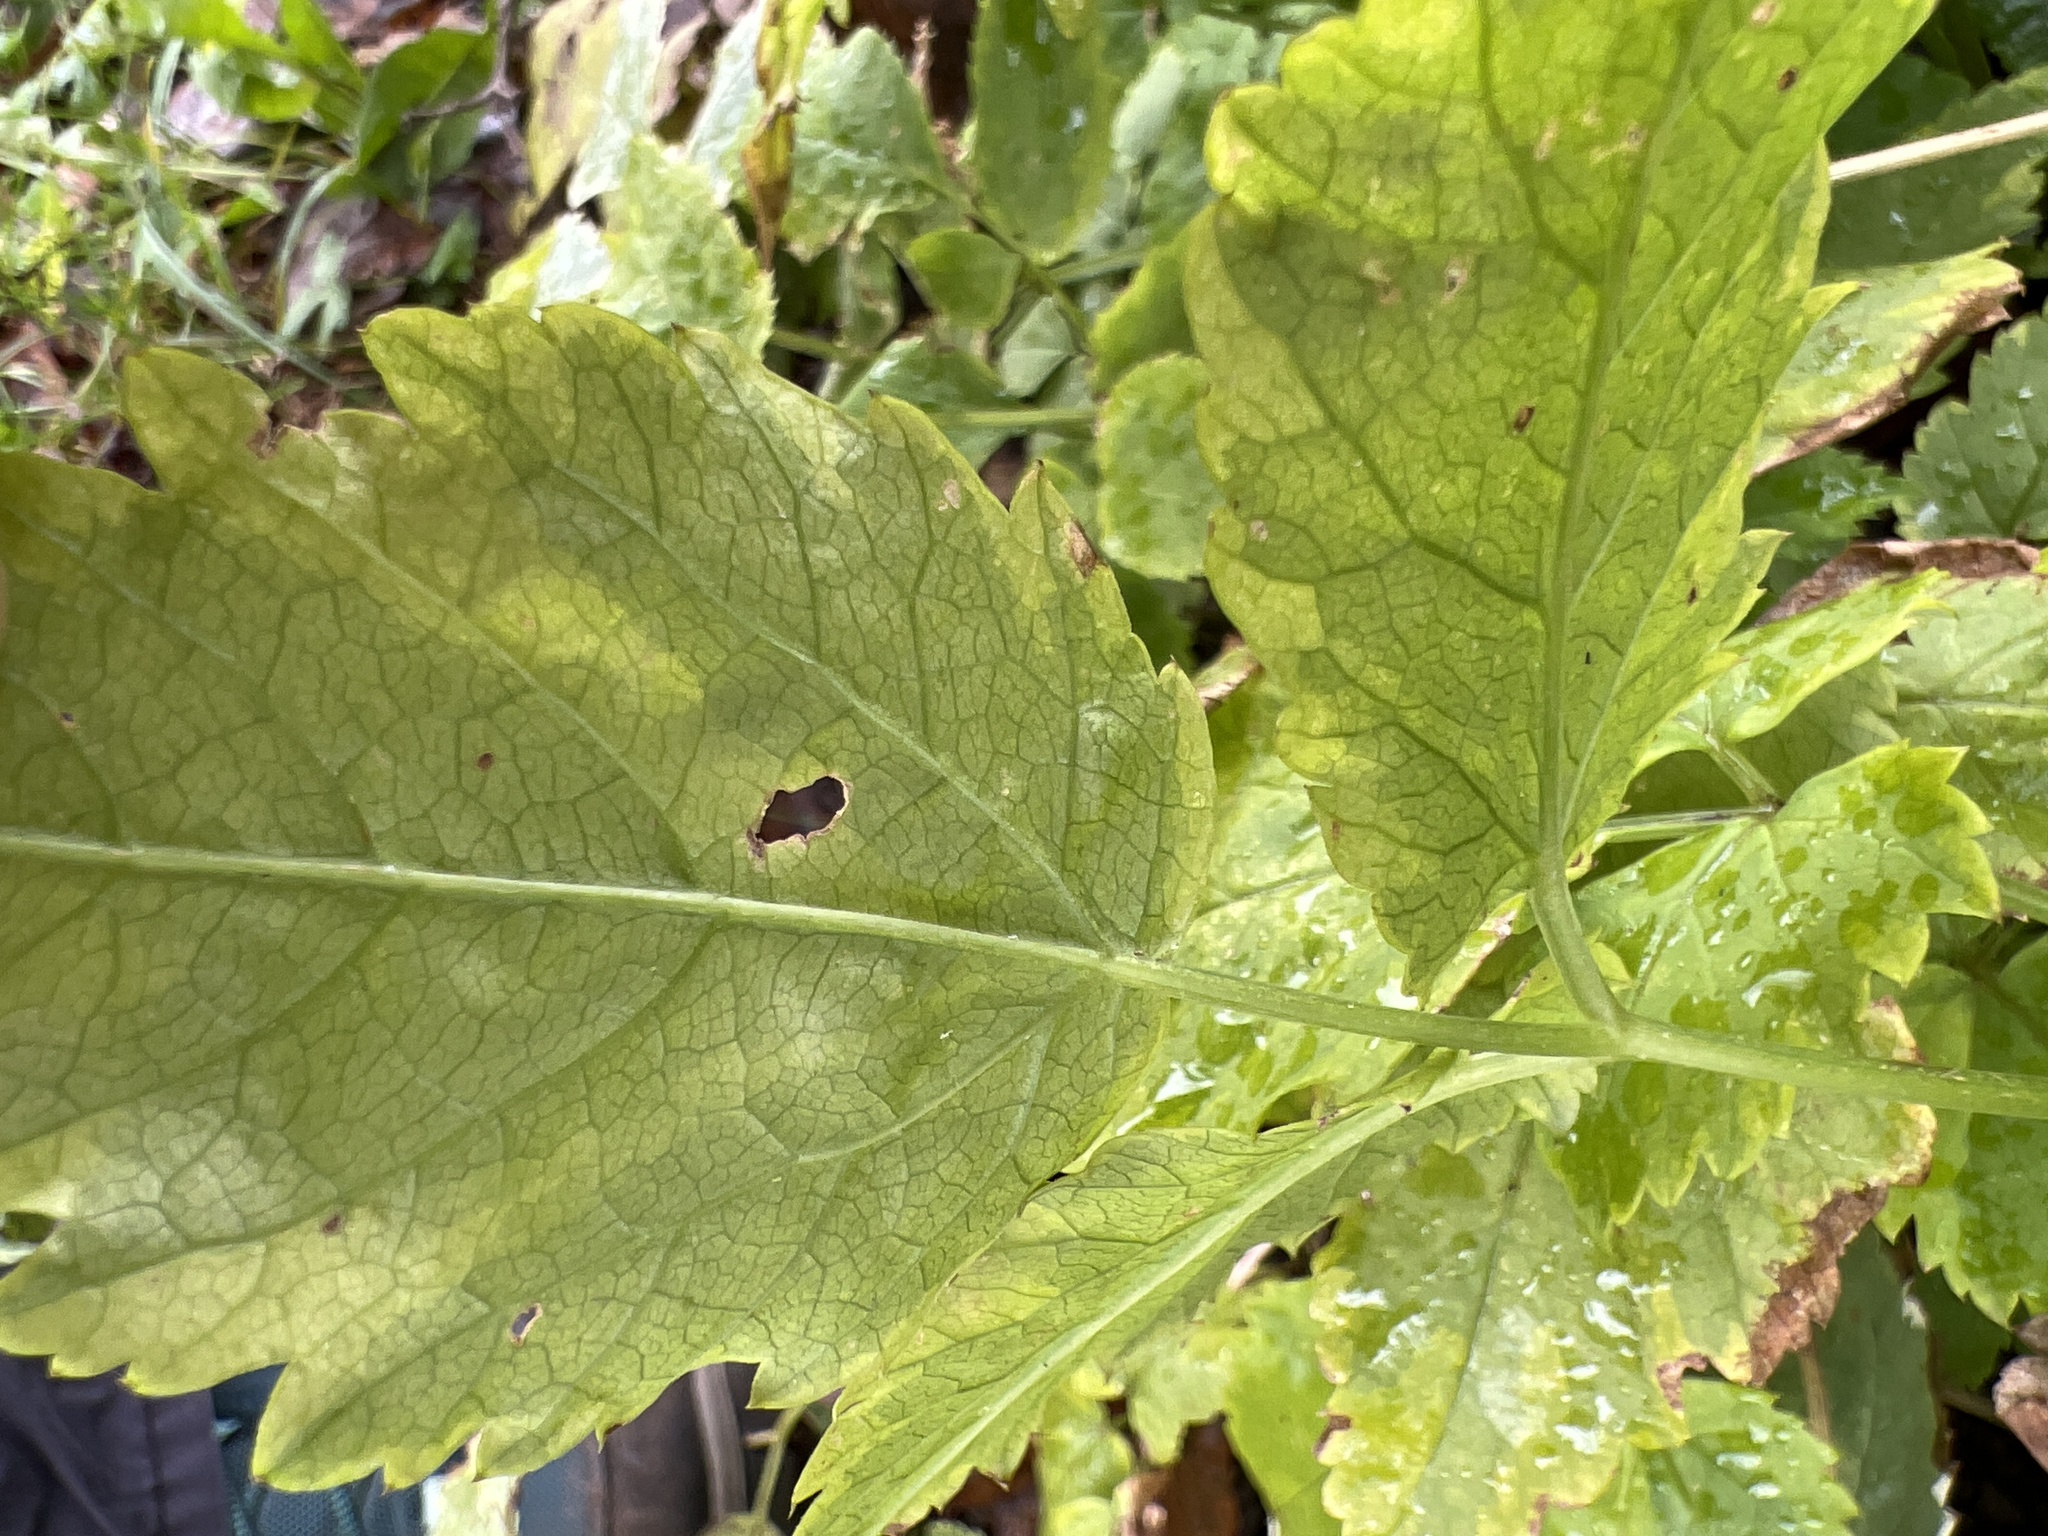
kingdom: Plantae
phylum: Tracheophyta
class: Magnoliopsida
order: Apiales
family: Apiaceae
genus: Aegopodium
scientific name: Aegopodium podagraria
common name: Ground-elder
